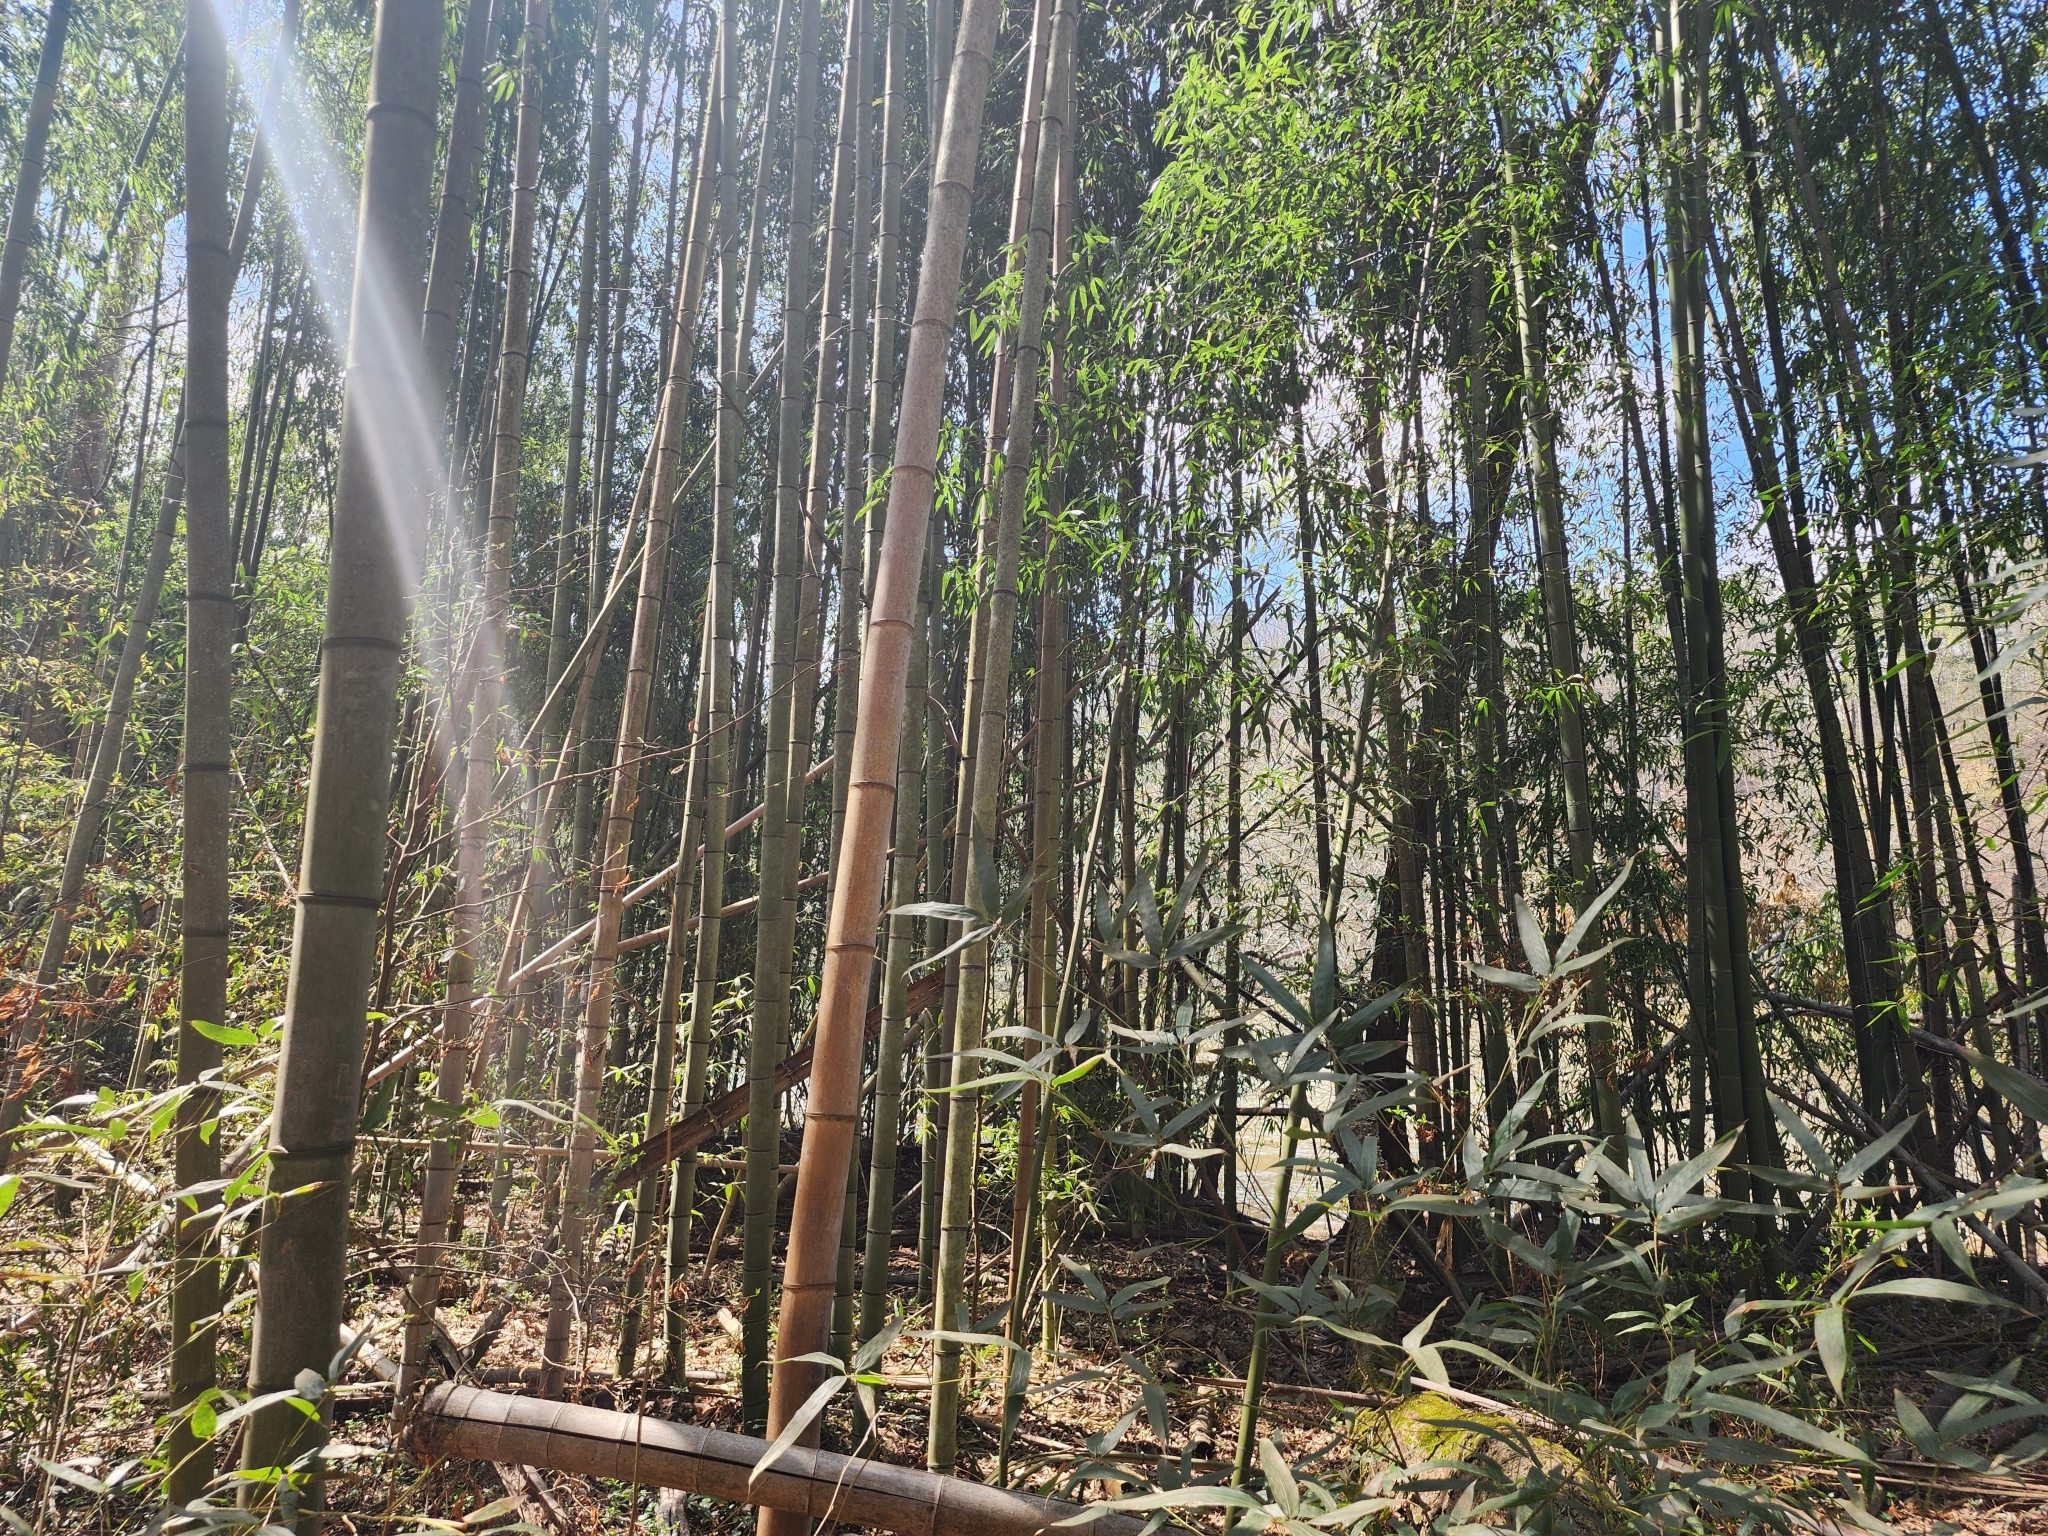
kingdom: Plantae
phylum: Tracheophyta
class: Liliopsida
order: Poales
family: Poaceae
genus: Phyllostachys
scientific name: Phyllostachys reticulata
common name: Bamboo
